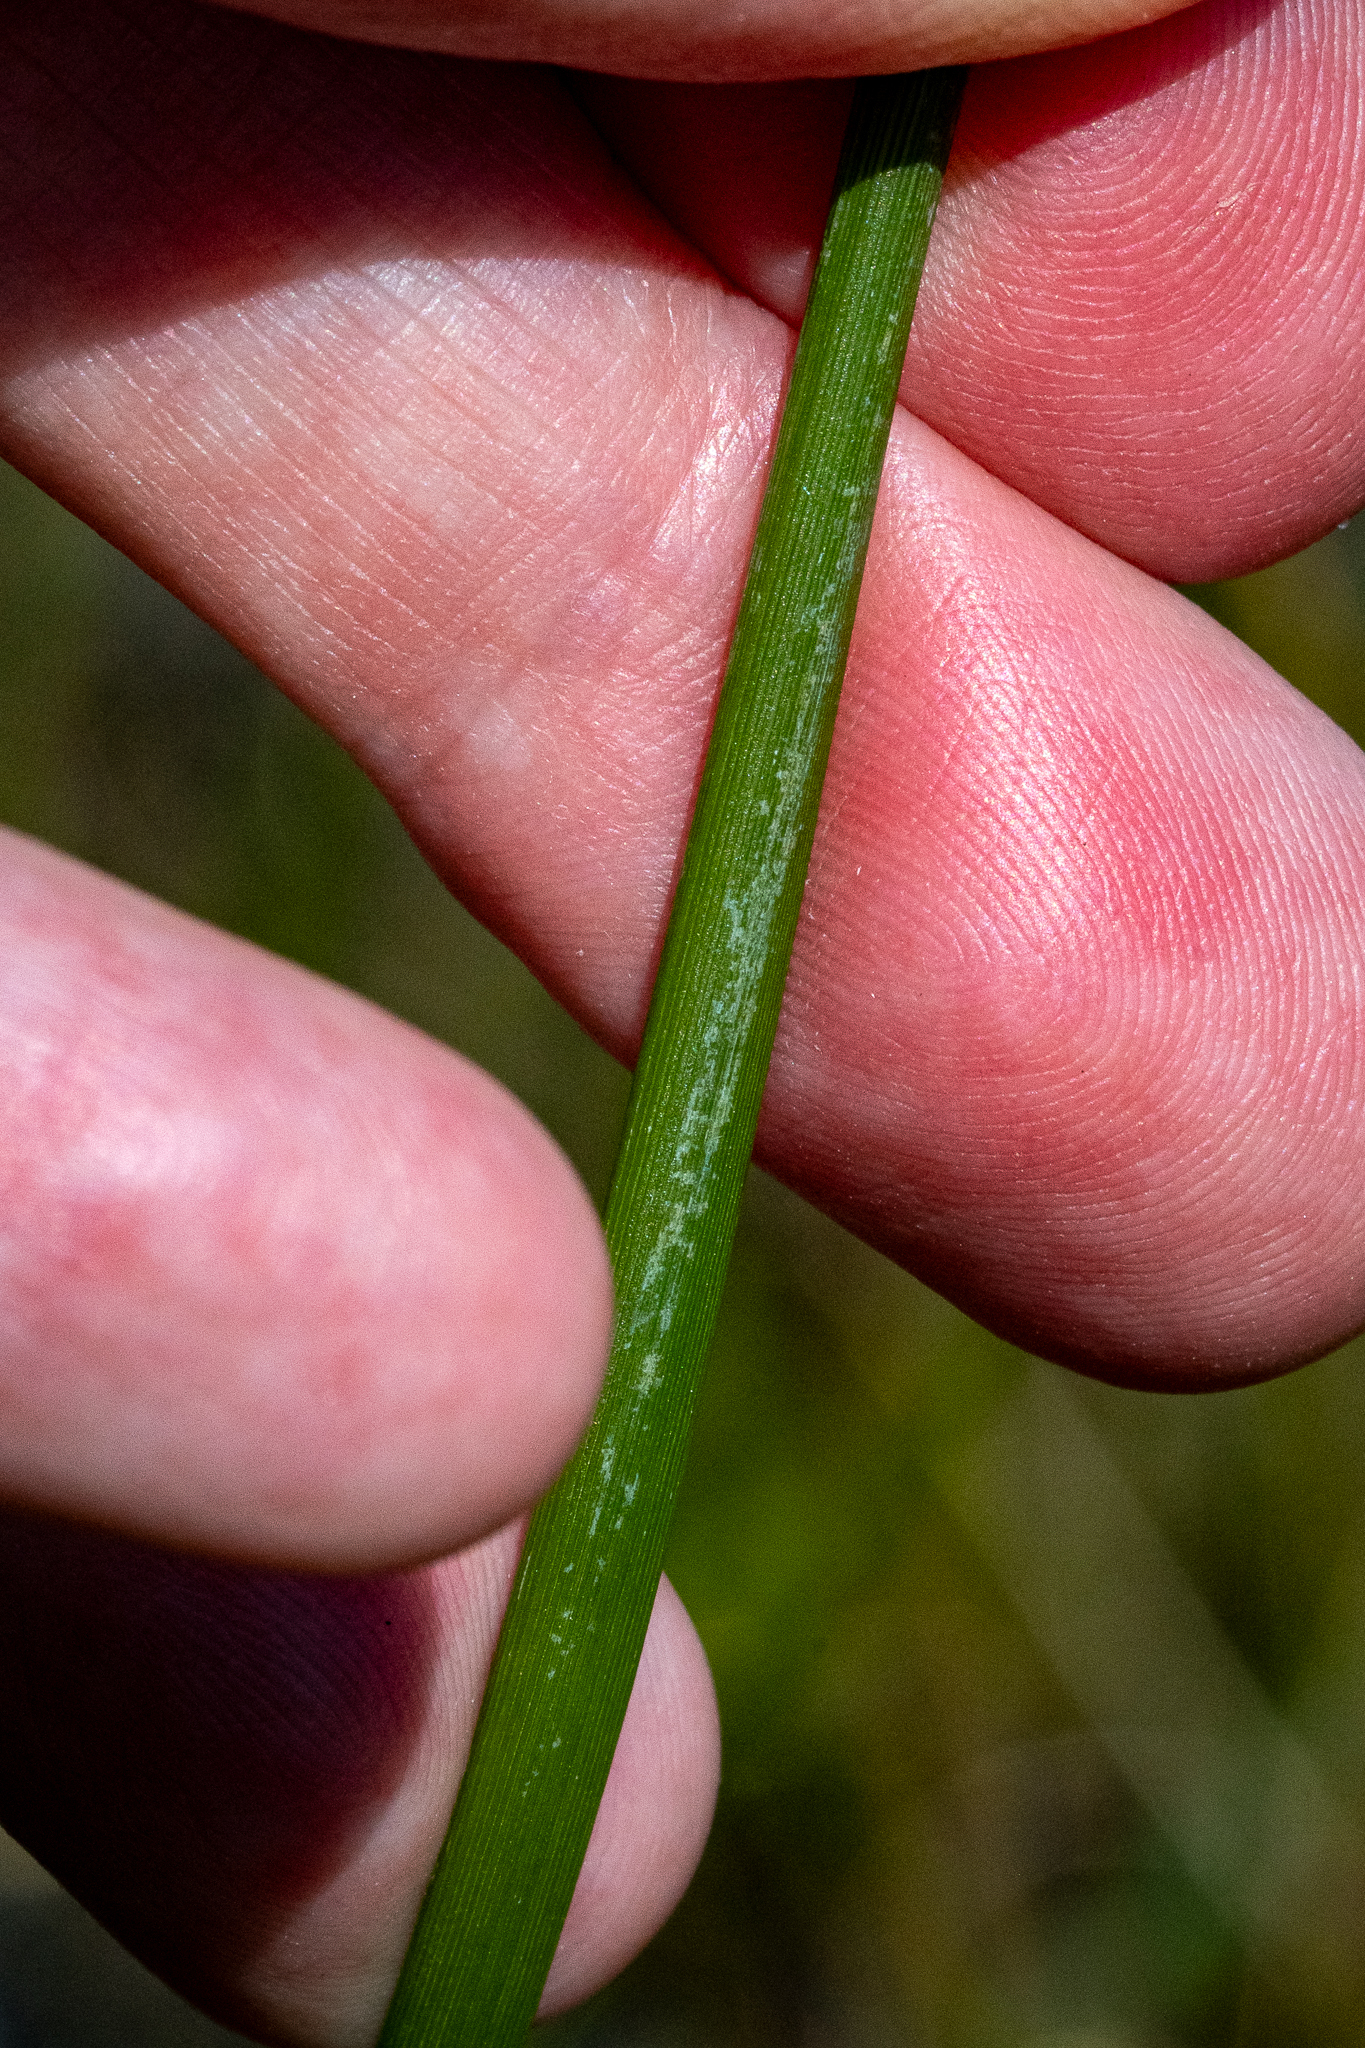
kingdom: Plantae
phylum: Tracheophyta
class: Liliopsida
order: Asparagales
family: Iridaceae
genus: Bobartia
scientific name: Bobartia indica
